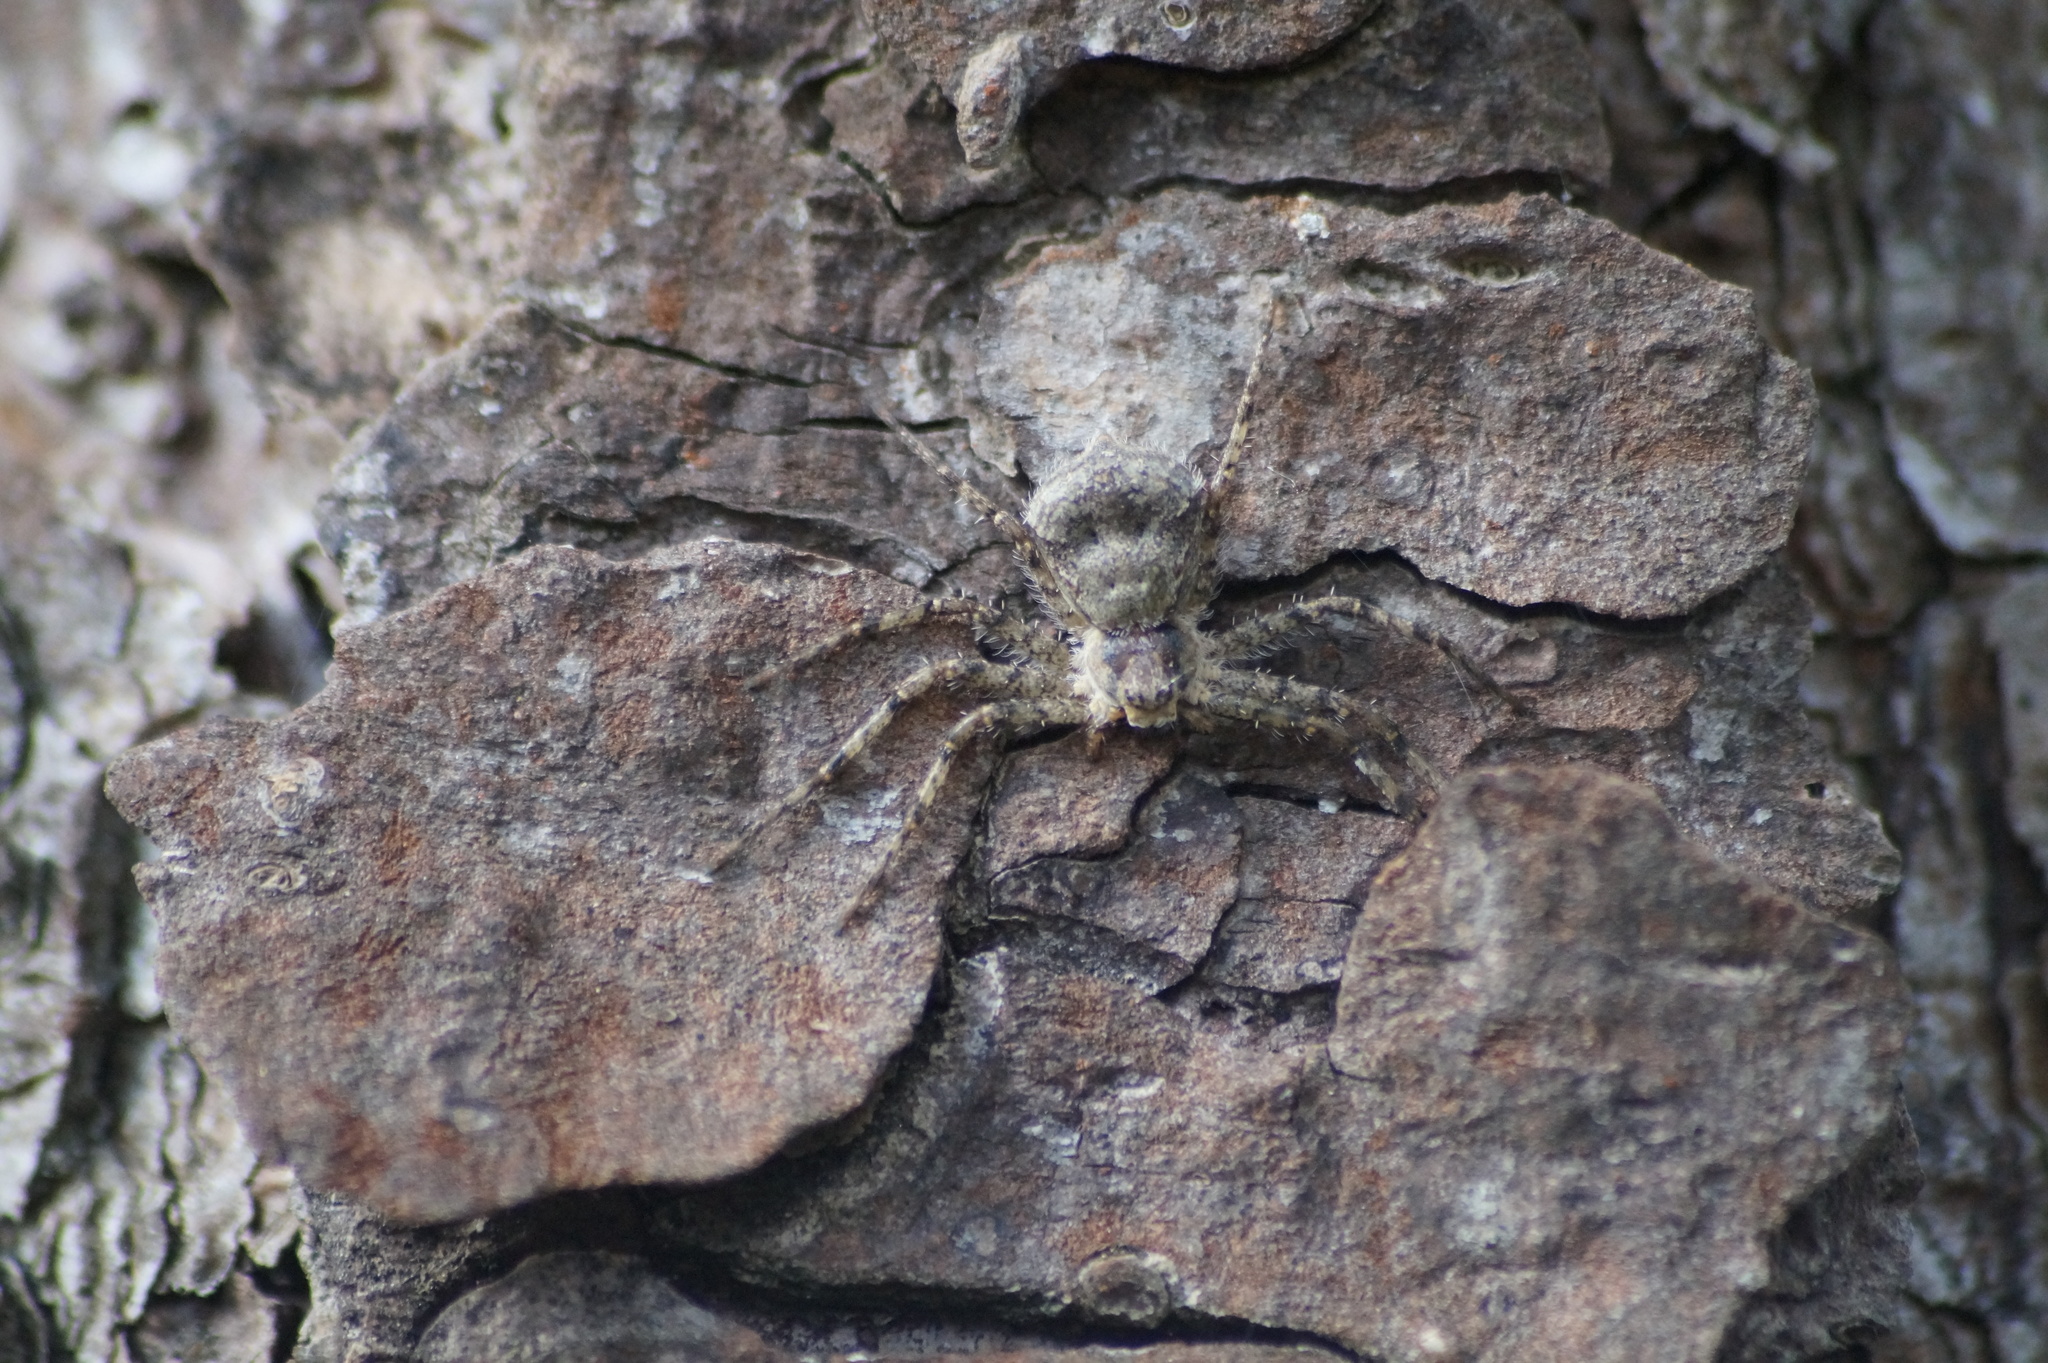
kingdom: Animalia
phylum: Arthropoda
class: Arachnida
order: Araneae
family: Philodromidae
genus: Philodromus
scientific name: Philodromus margaritatus
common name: Lichen running-spider
